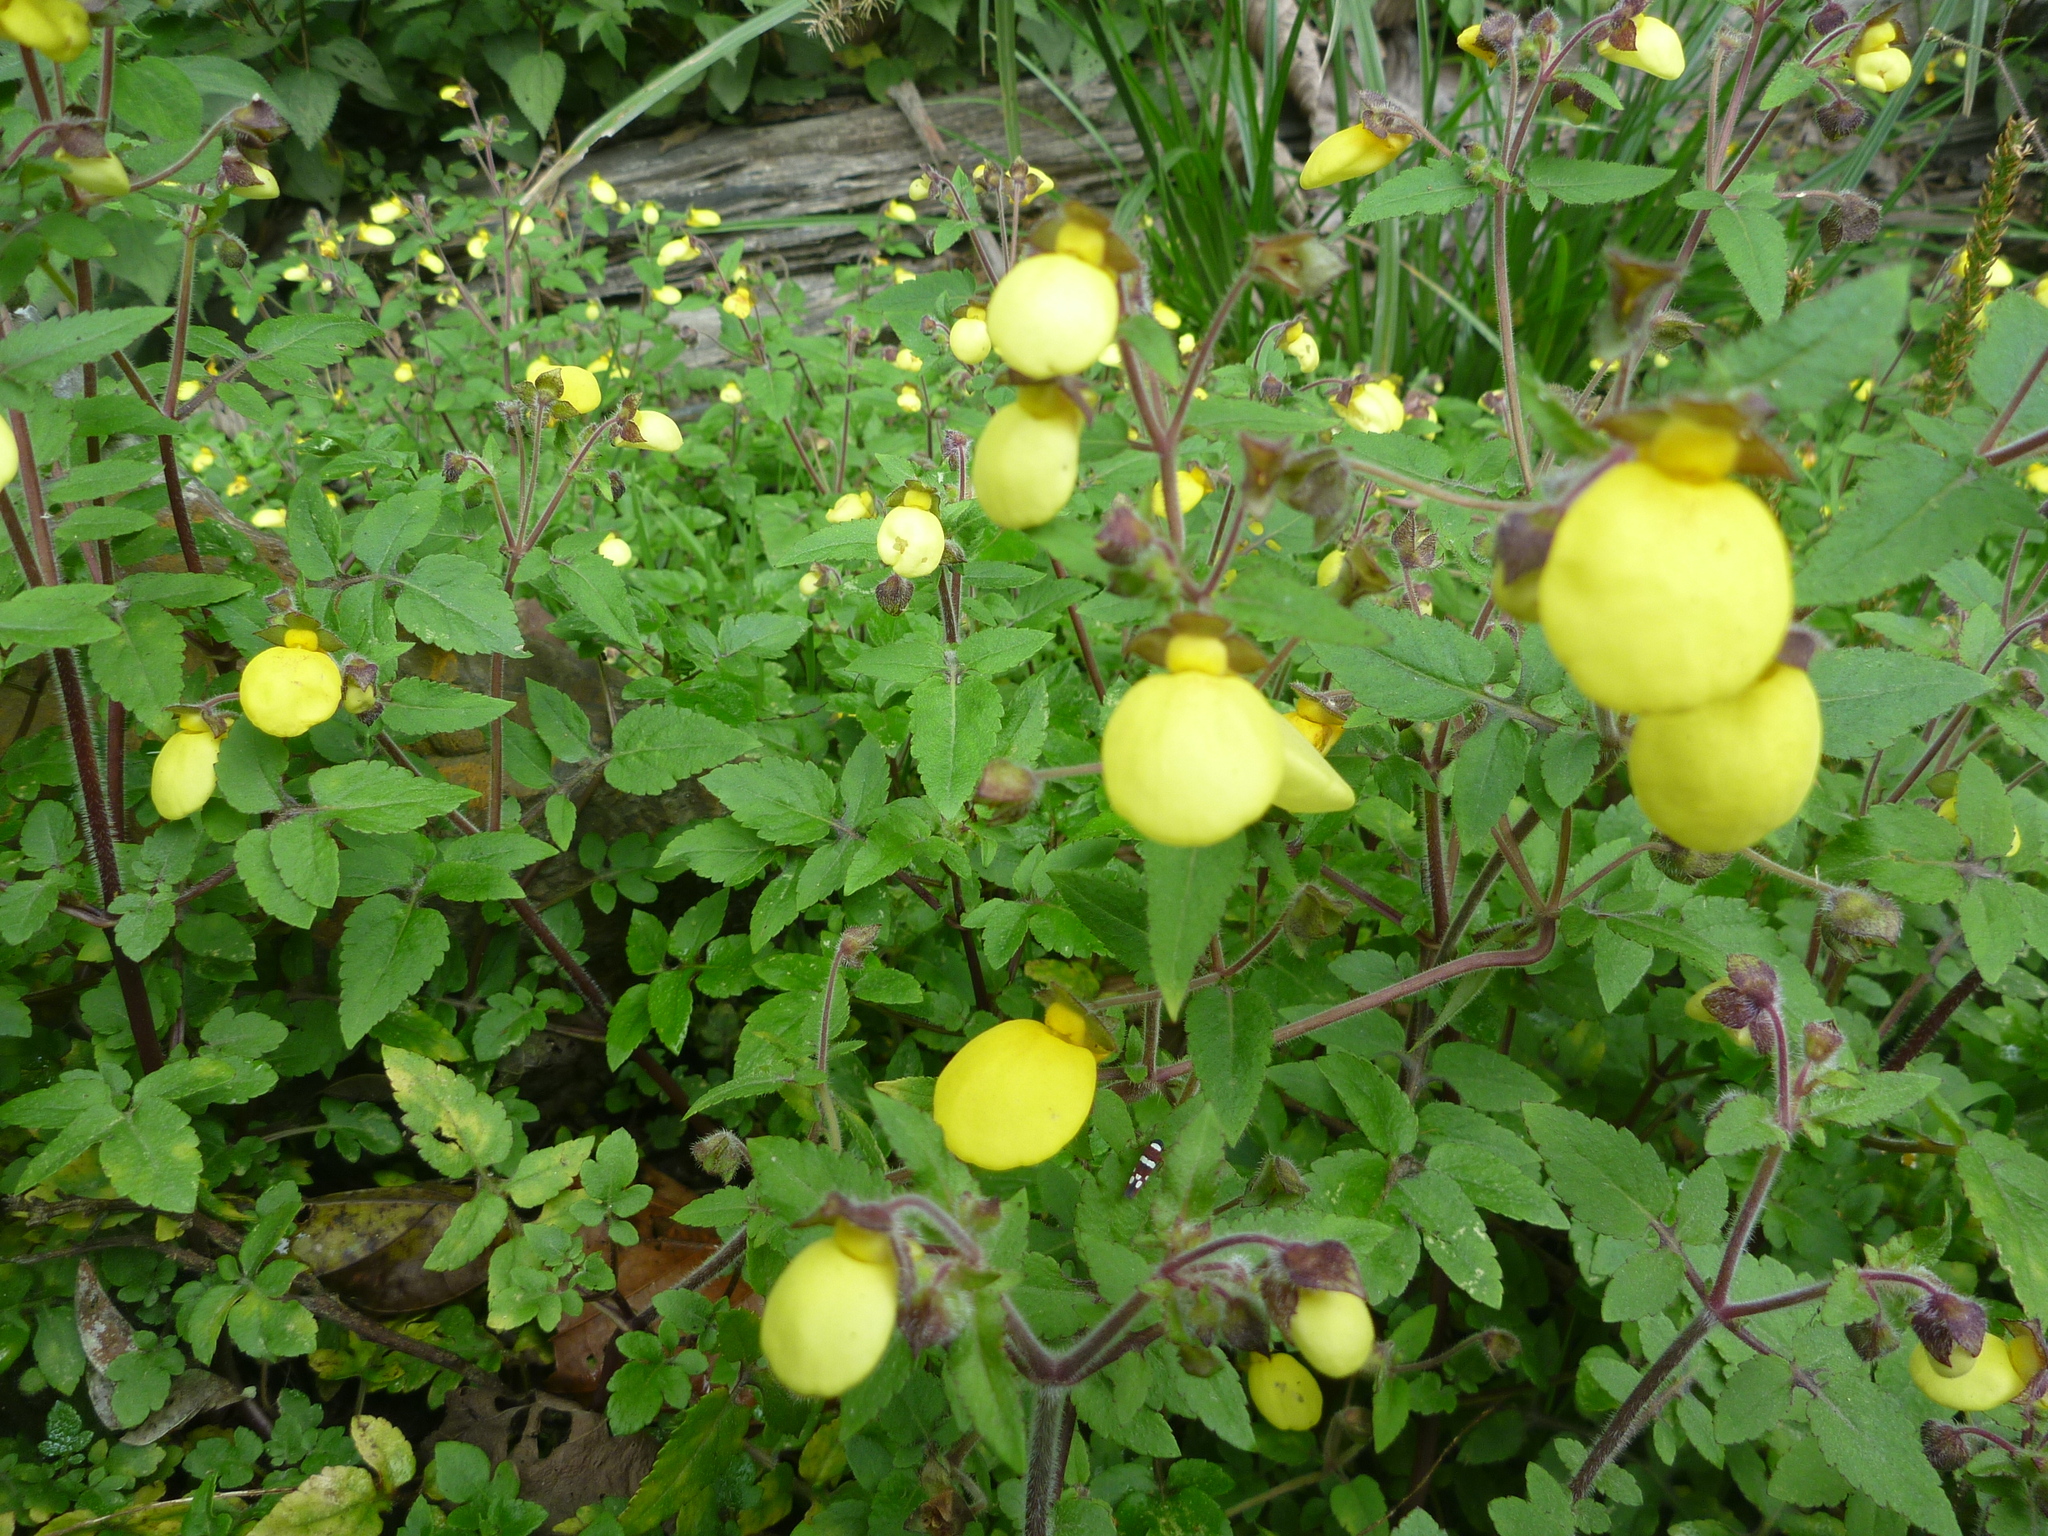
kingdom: Plantae
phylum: Tracheophyta
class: Magnoliopsida
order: Lamiales
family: Calceolariaceae
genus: Calceolaria
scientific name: Calceolaria tripartita
